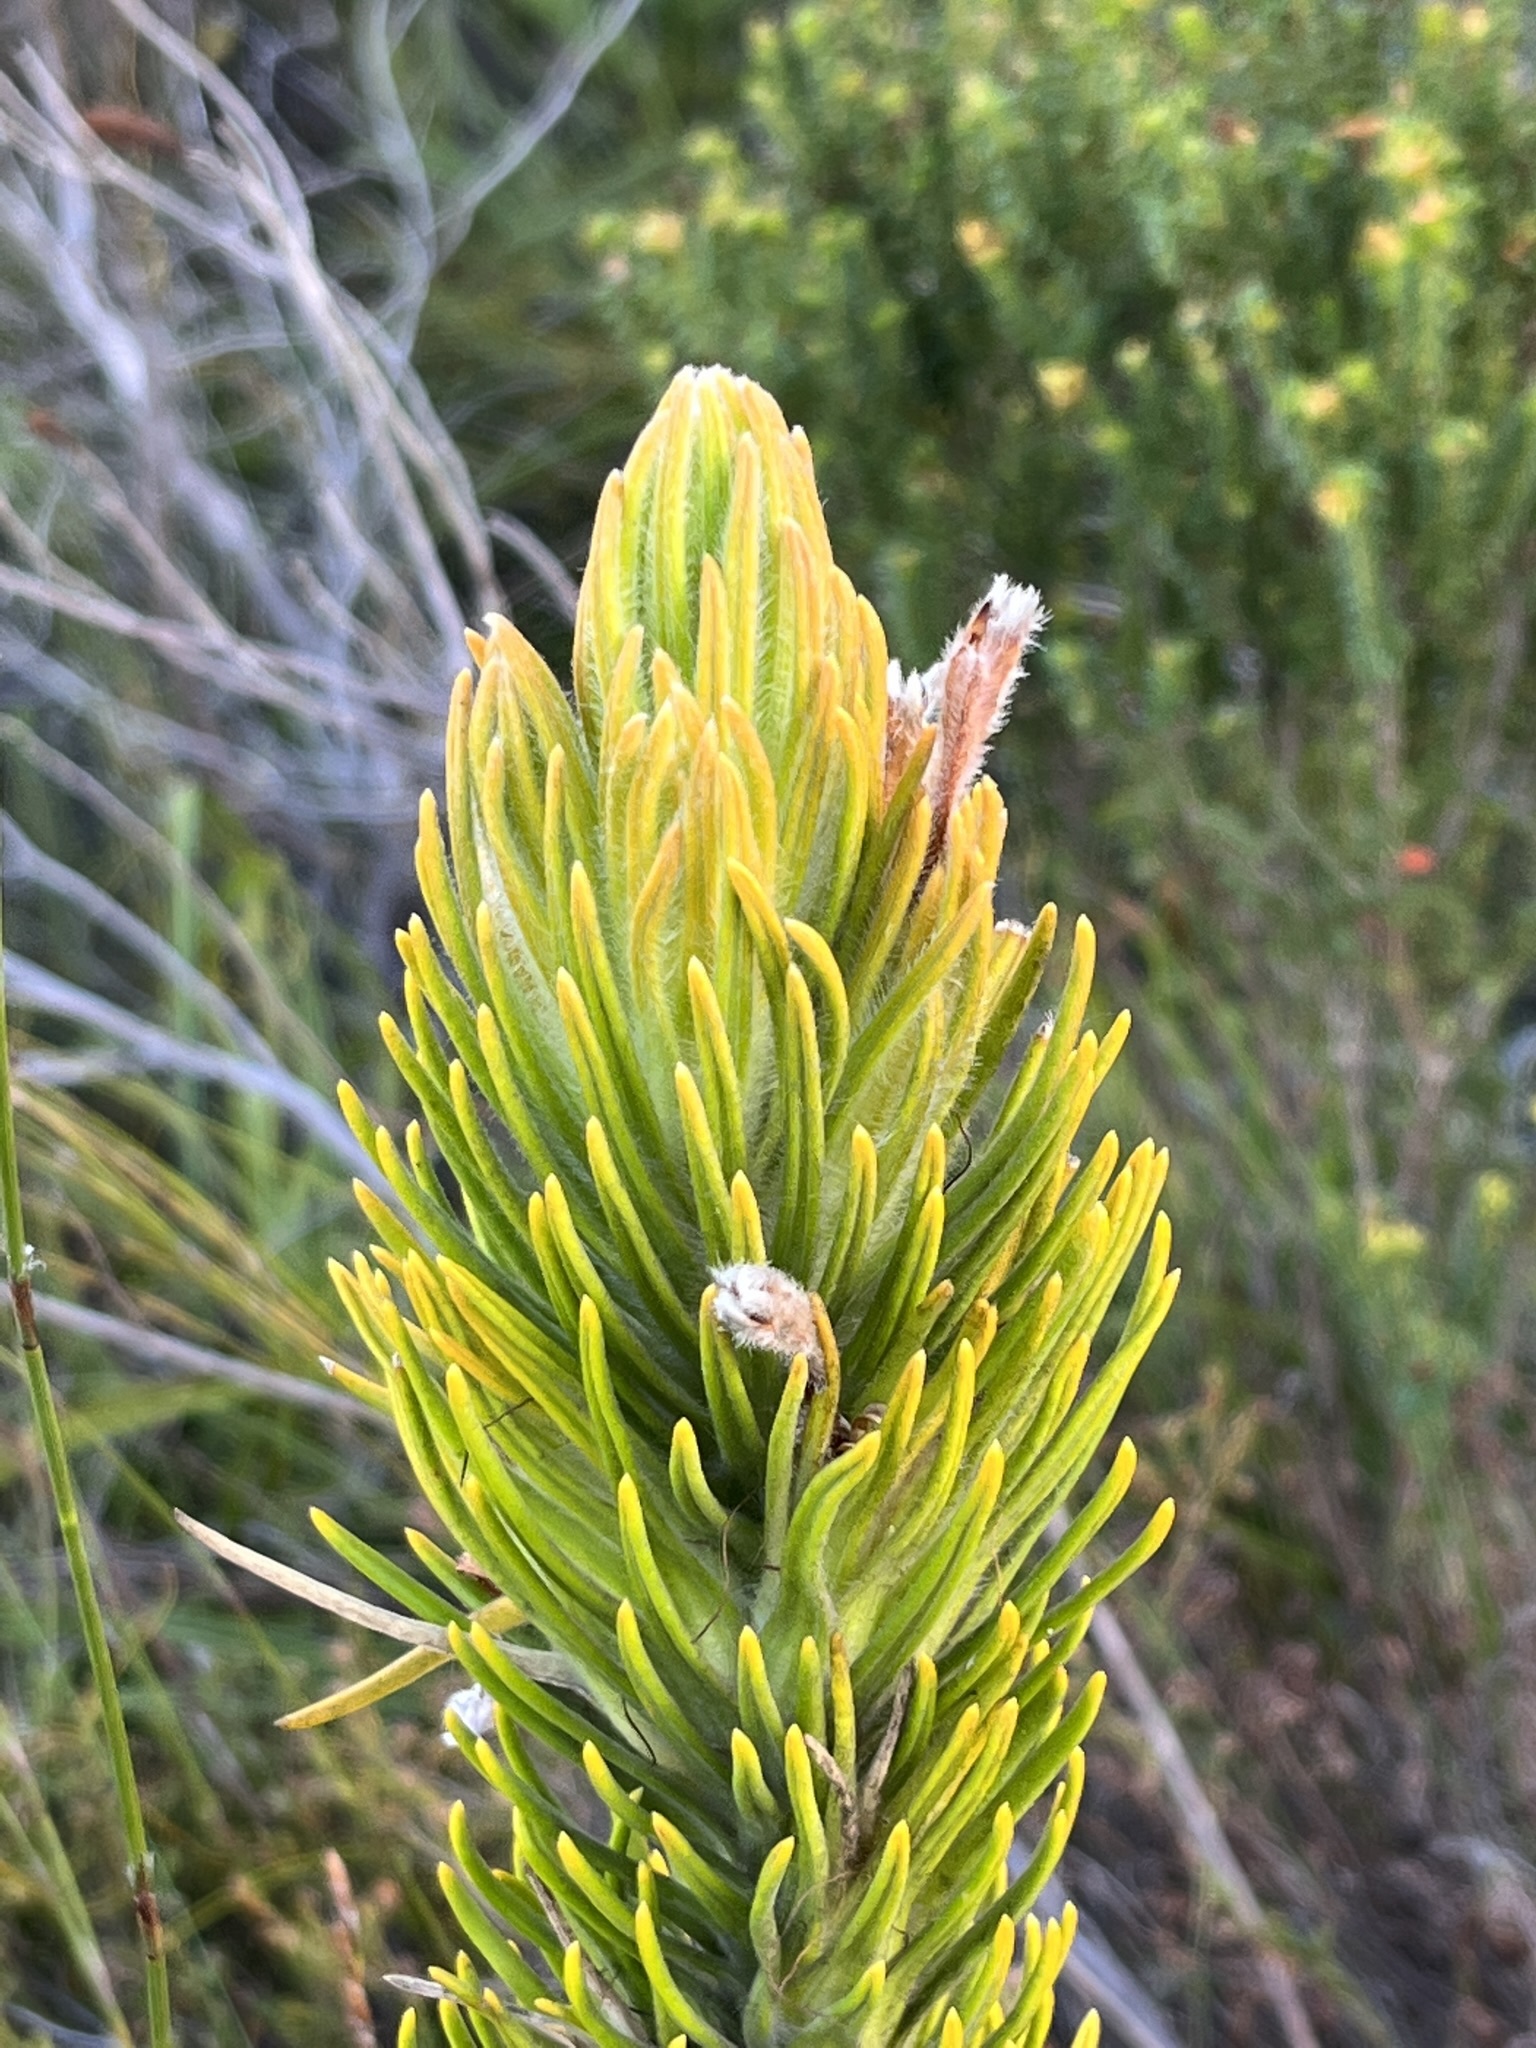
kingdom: Plantae
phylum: Tracheophyta
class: Magnoliopsida
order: Lamiales
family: Stilbaceae
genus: Retzia
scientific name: Retzia capensis
